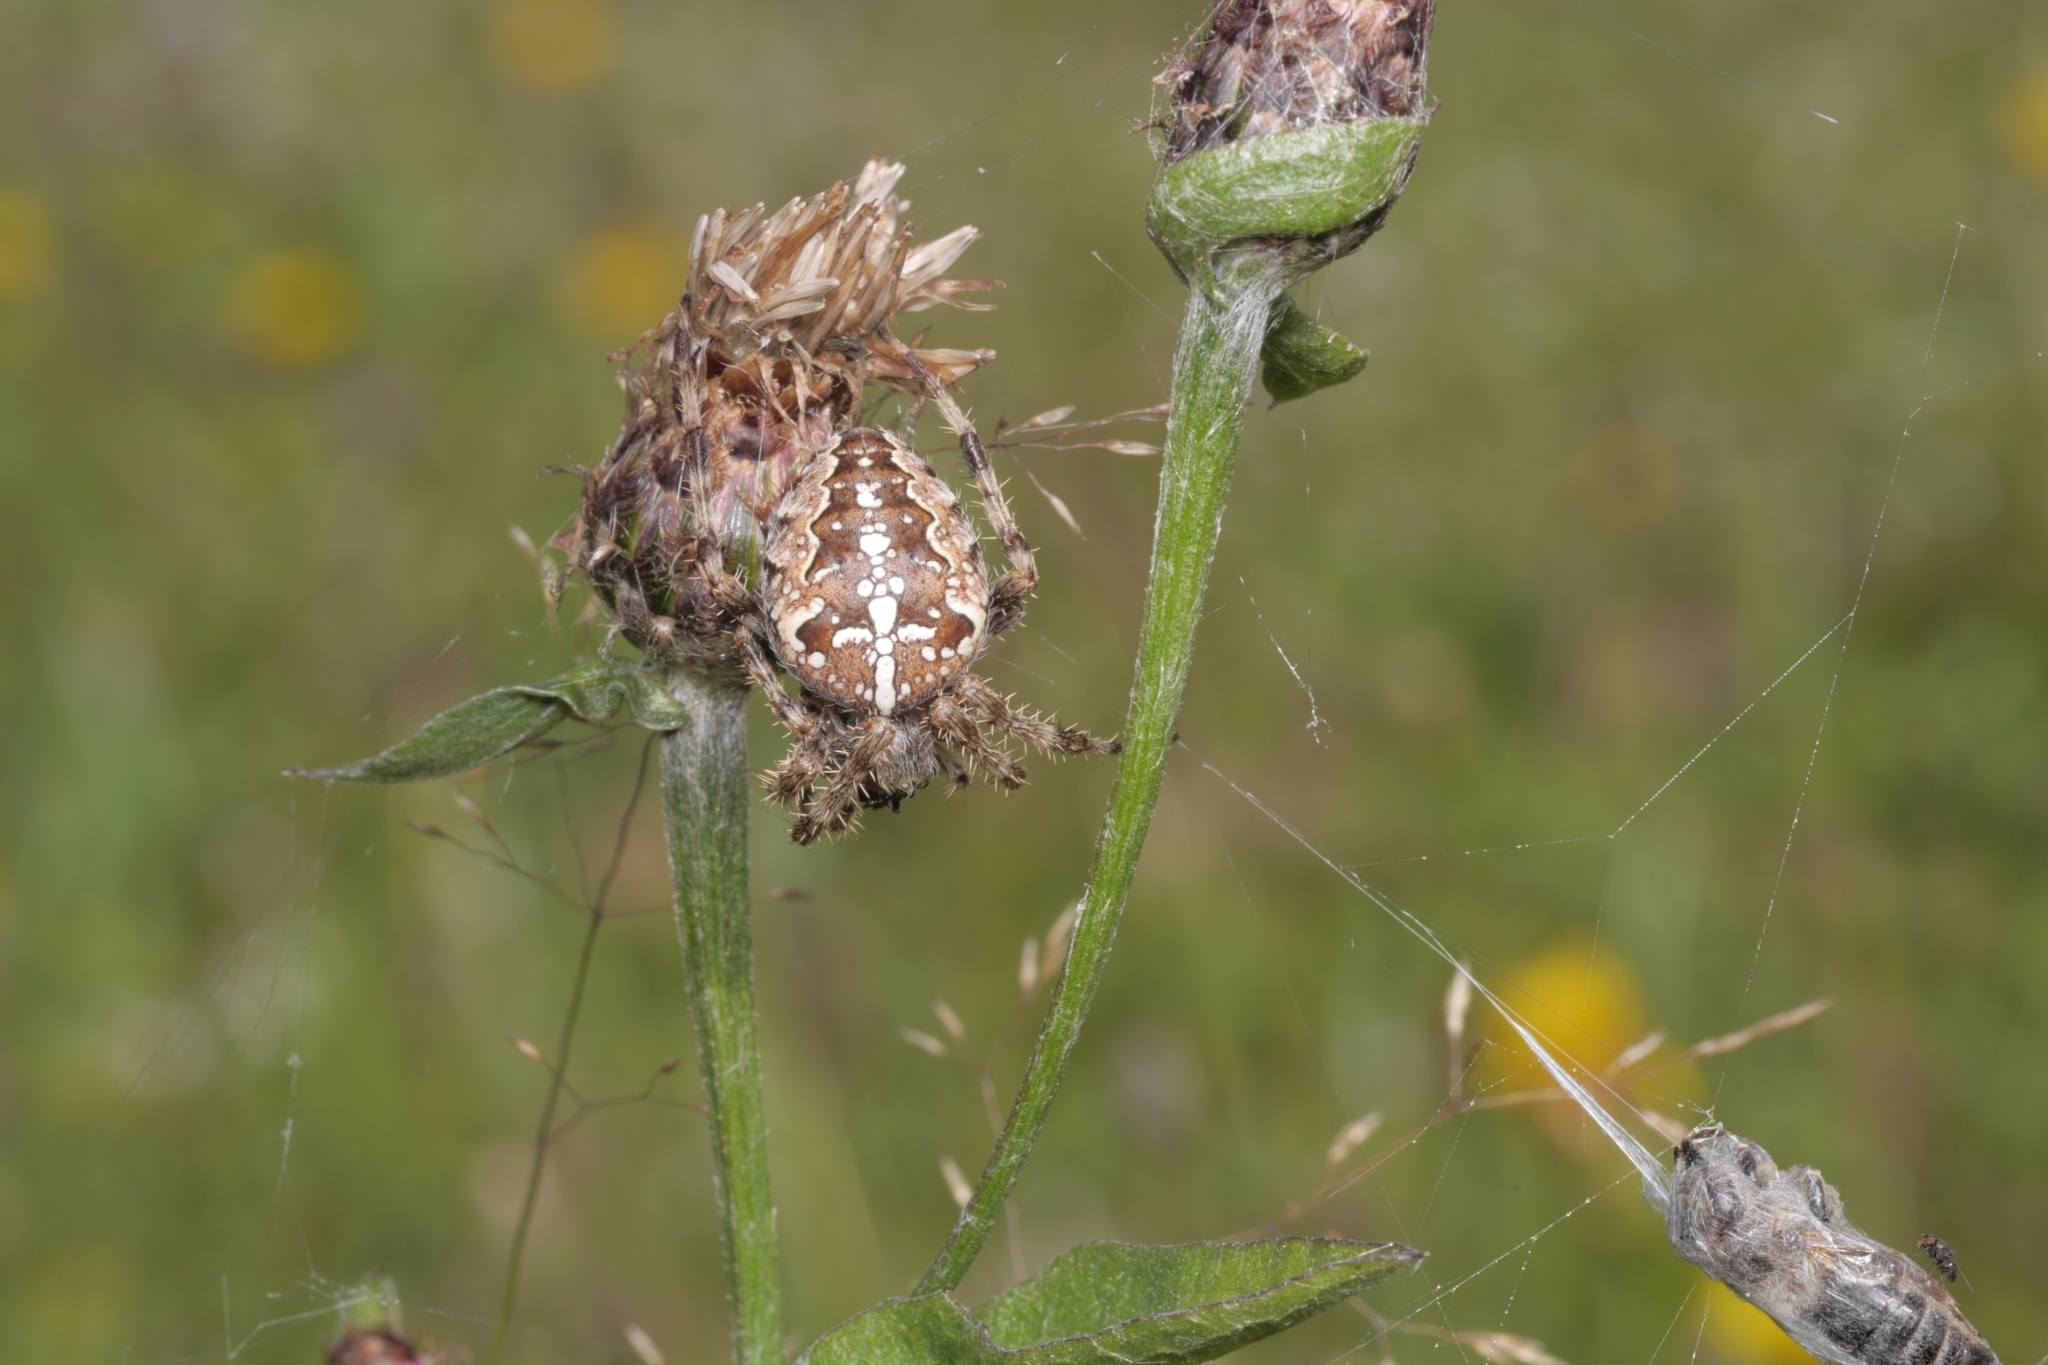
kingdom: Animalia
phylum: Arthropoda
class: Arachnida
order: Araneae
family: Araneidae
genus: Araneus
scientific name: Araneus diadematus
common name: Cross orbweaver
